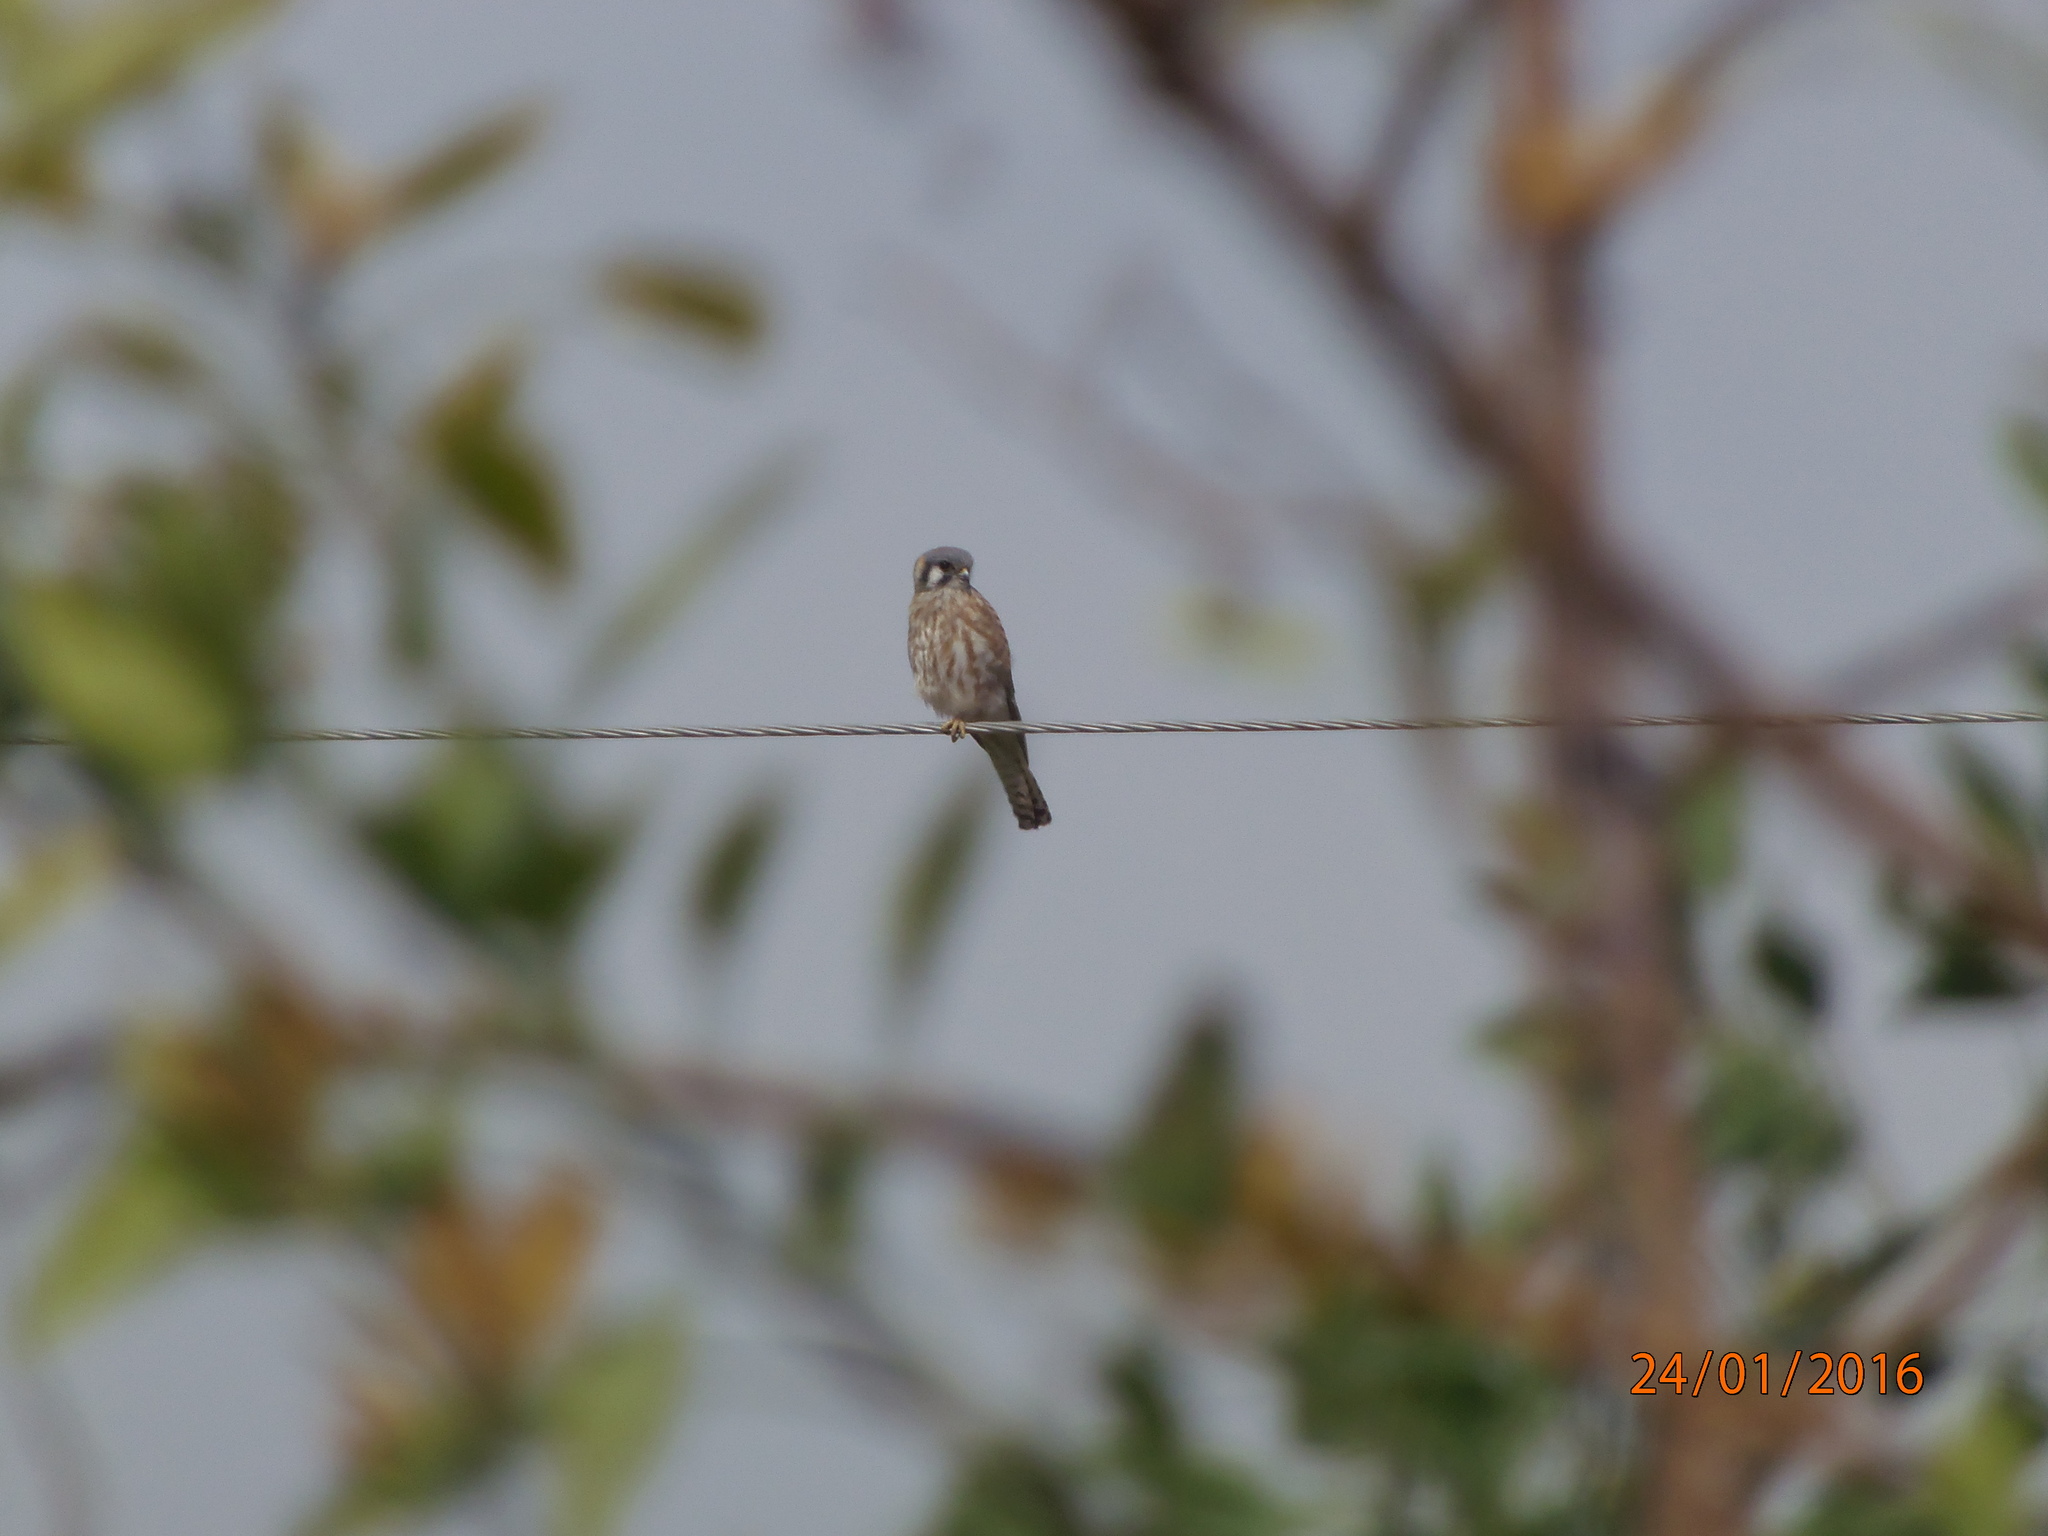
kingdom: Animalia
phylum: Chordata
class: Aves
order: Falconiformes
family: Falconidae
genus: Falco
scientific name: Falco sparverius
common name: American kestrel
